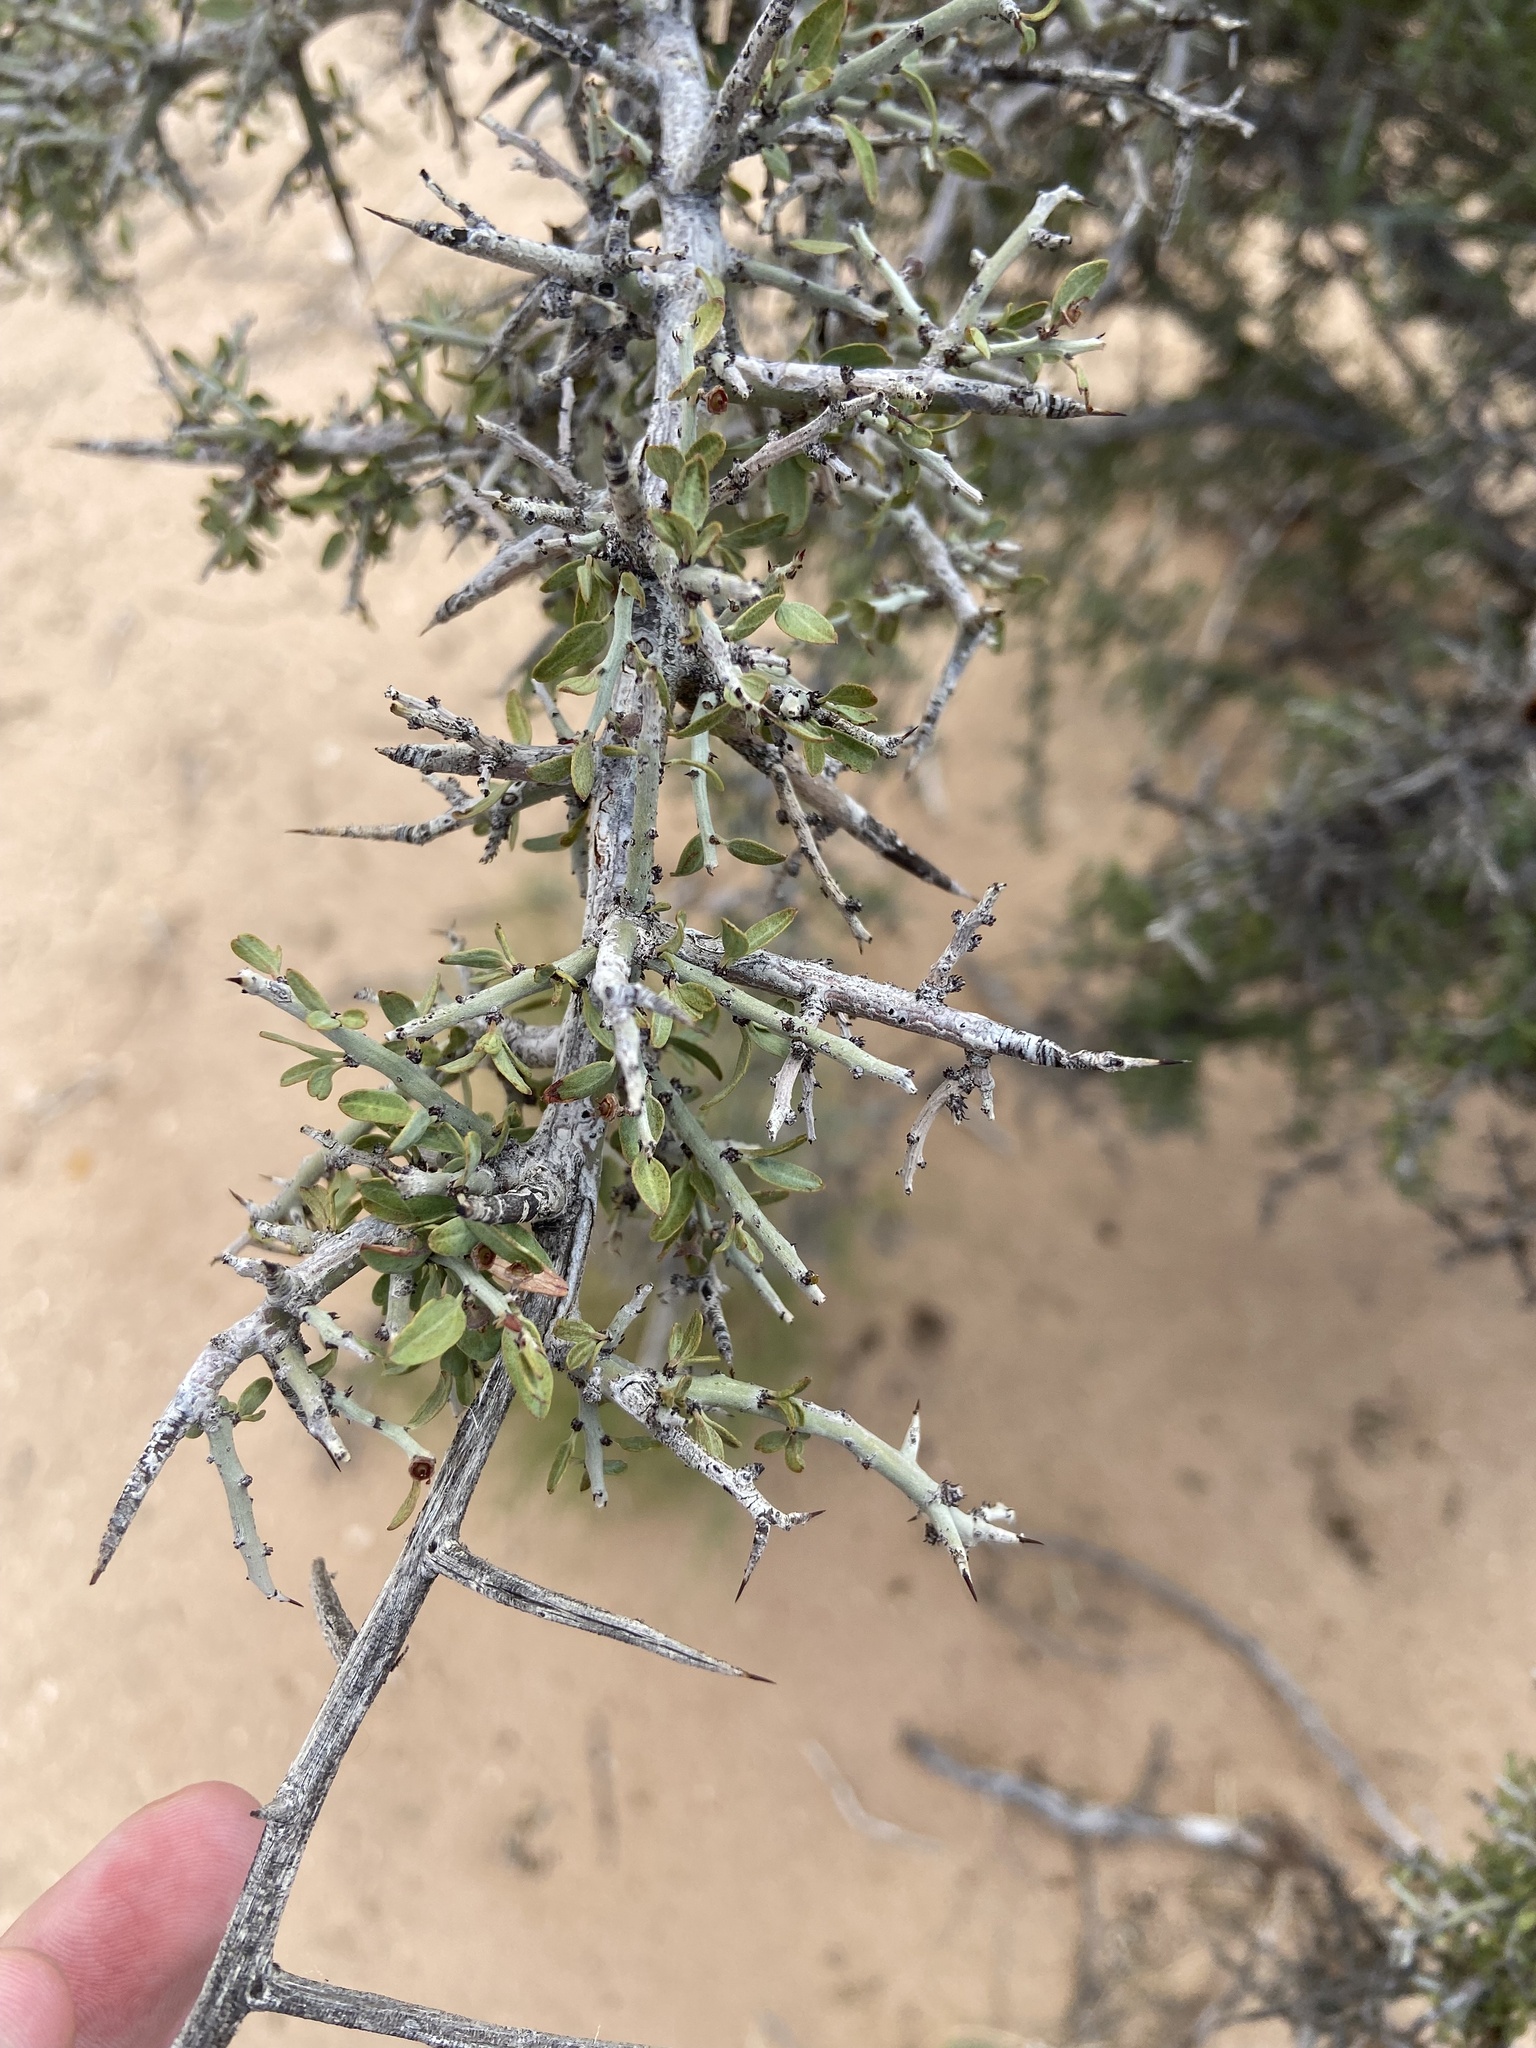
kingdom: Plantae
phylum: Tracheophyta
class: Magnoliopsida
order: Rosales
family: Rhamnaceae
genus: Sarcomphalus
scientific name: Sarcomphalus obtusifolius
